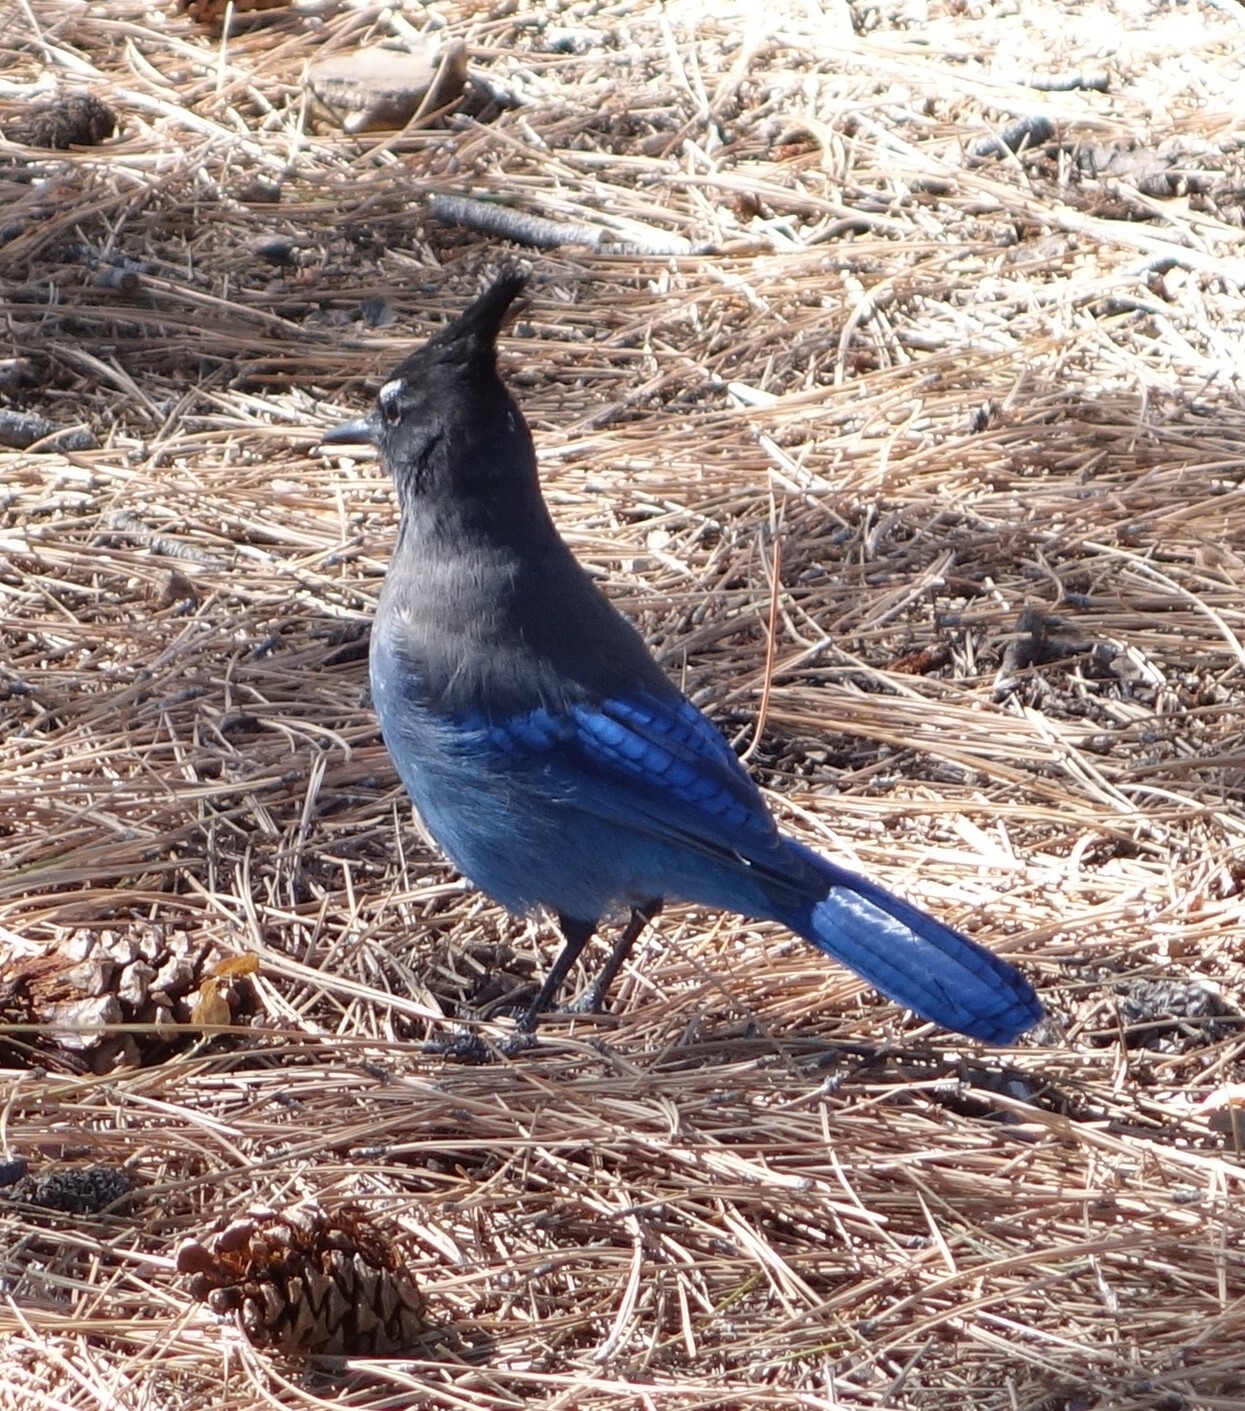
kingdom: Animalia
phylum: Chordata
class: Aves
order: Passeriformes
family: Corvidae
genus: Cyanocitta
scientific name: Cyanocitta stelleri
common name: Steller's jay
